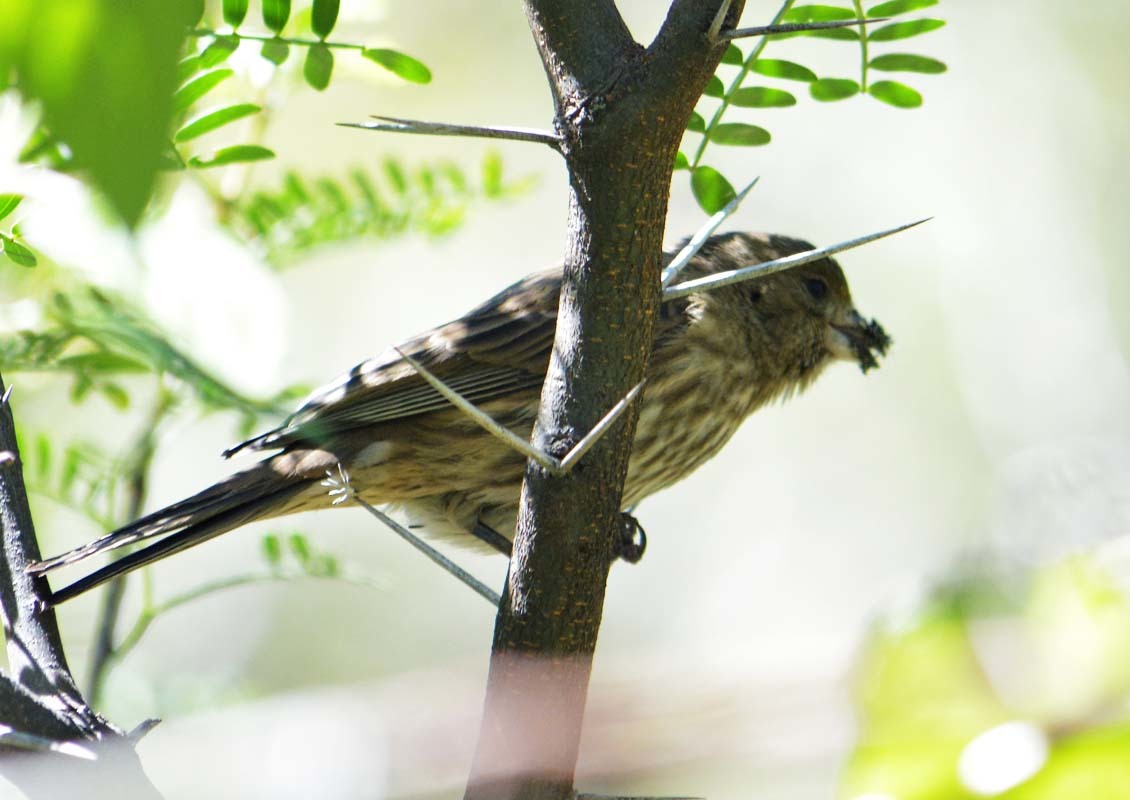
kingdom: Animalia
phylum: Chordata
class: Aves
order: Passeriformes
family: Fringillidae
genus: Haemorhous
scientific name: Haemorhous mexicanus
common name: House finch
